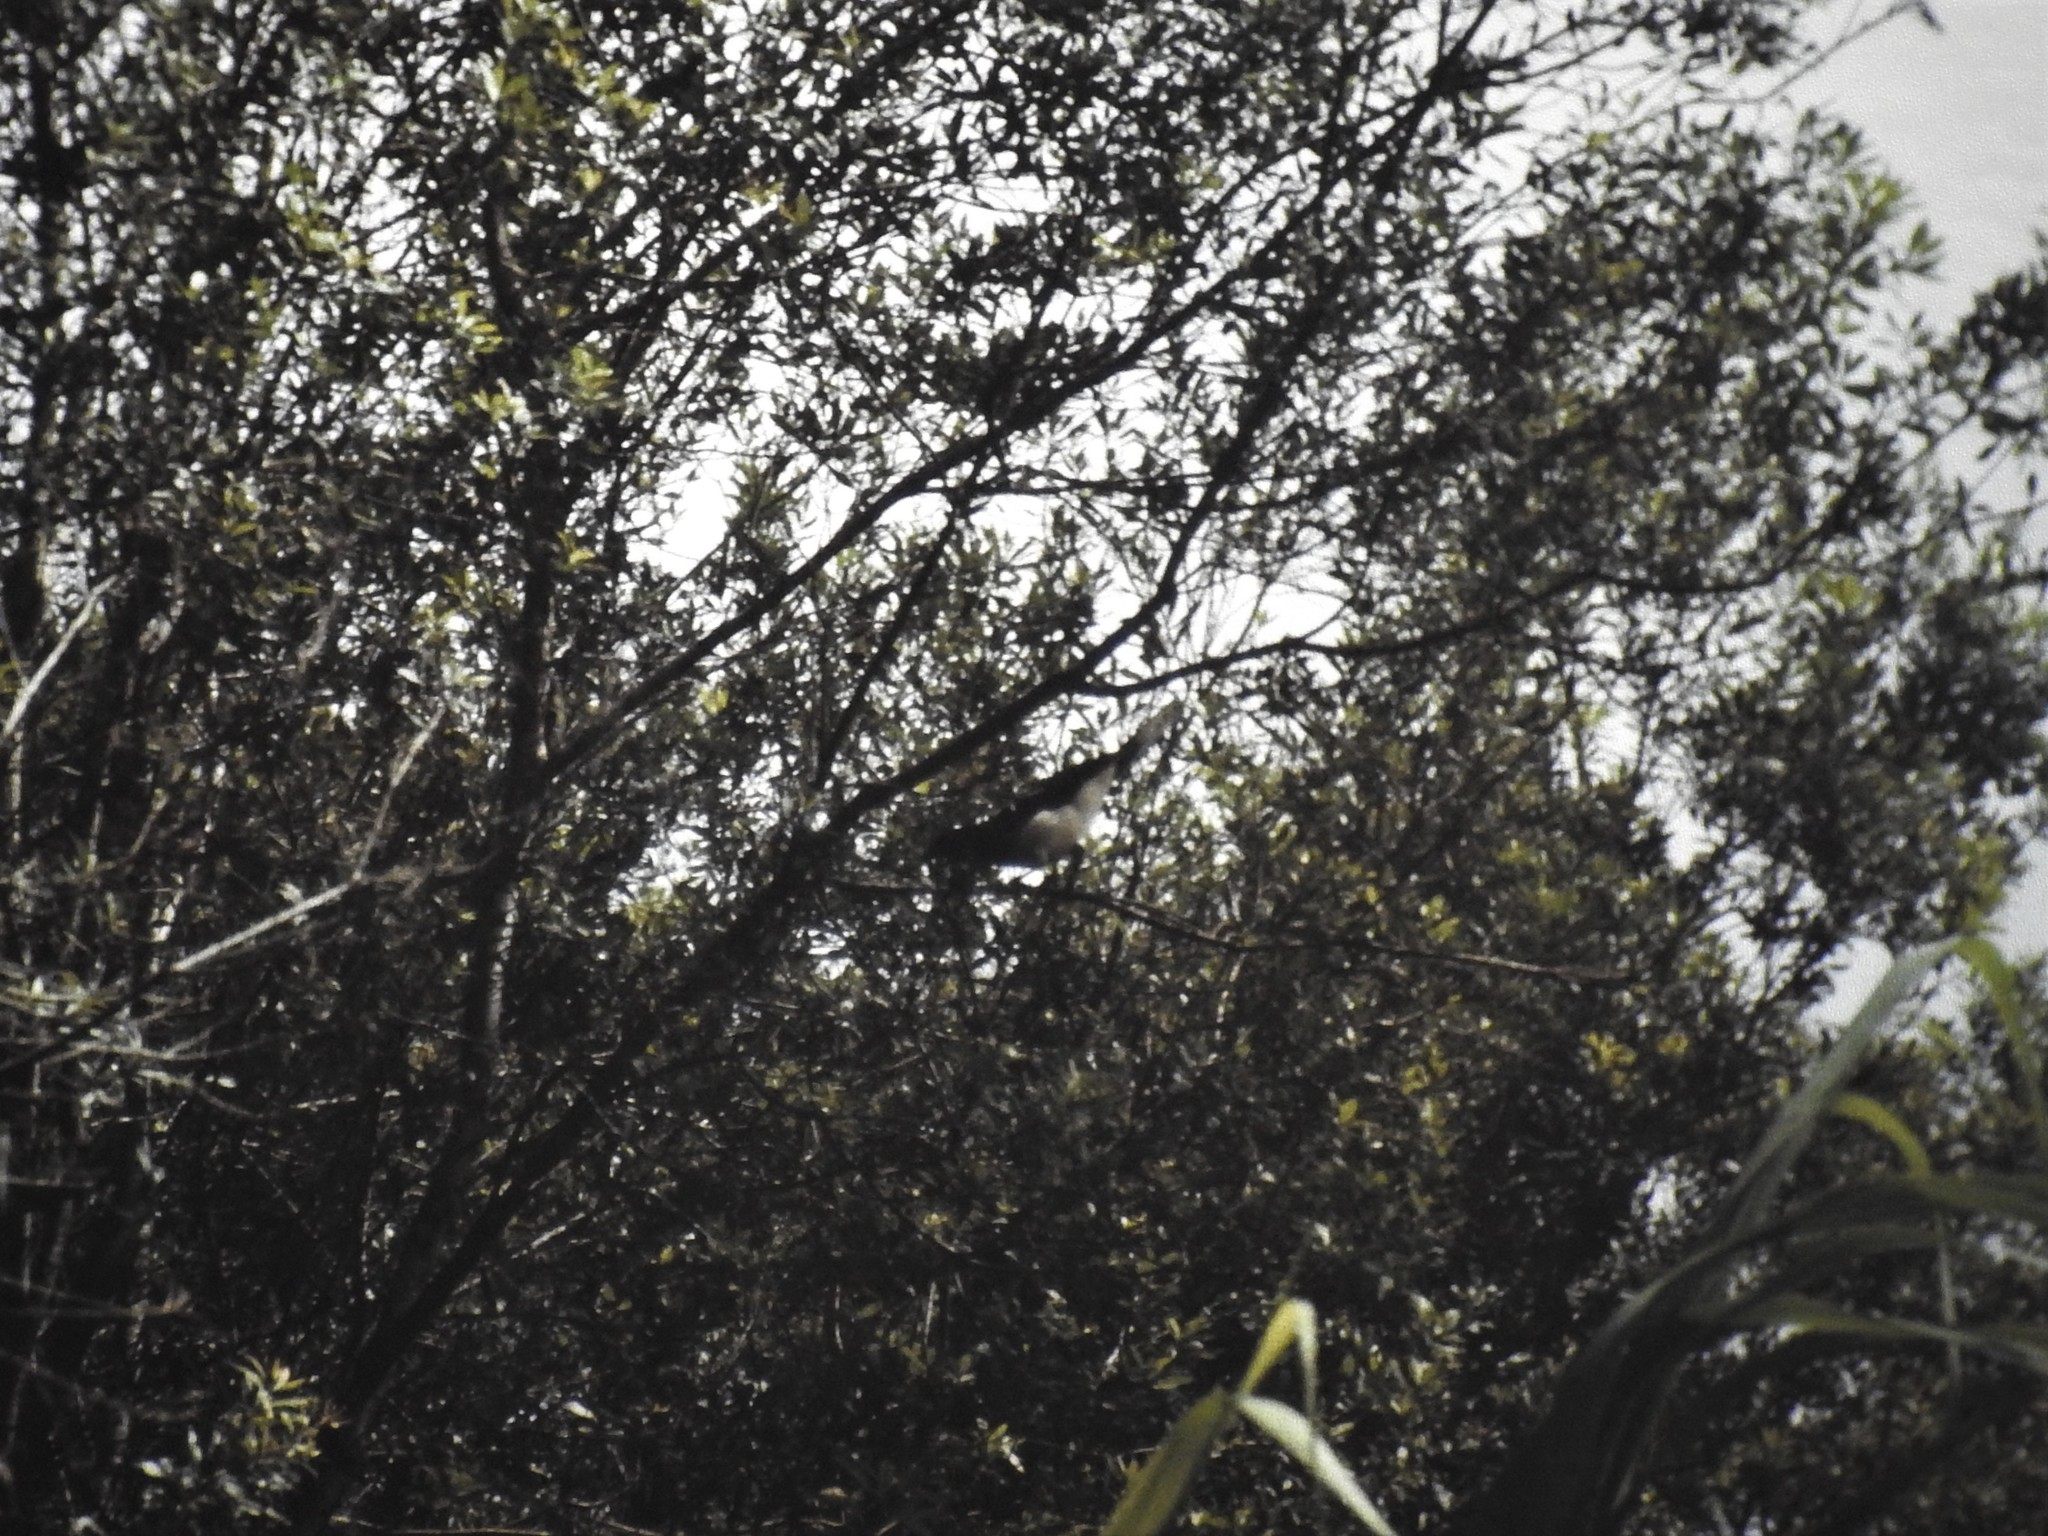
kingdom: Animalia
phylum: Chordata
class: Aves
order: Passeriformes
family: Corvidae
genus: Psilorhinus
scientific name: Psilorhinus morio
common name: Brown jay
